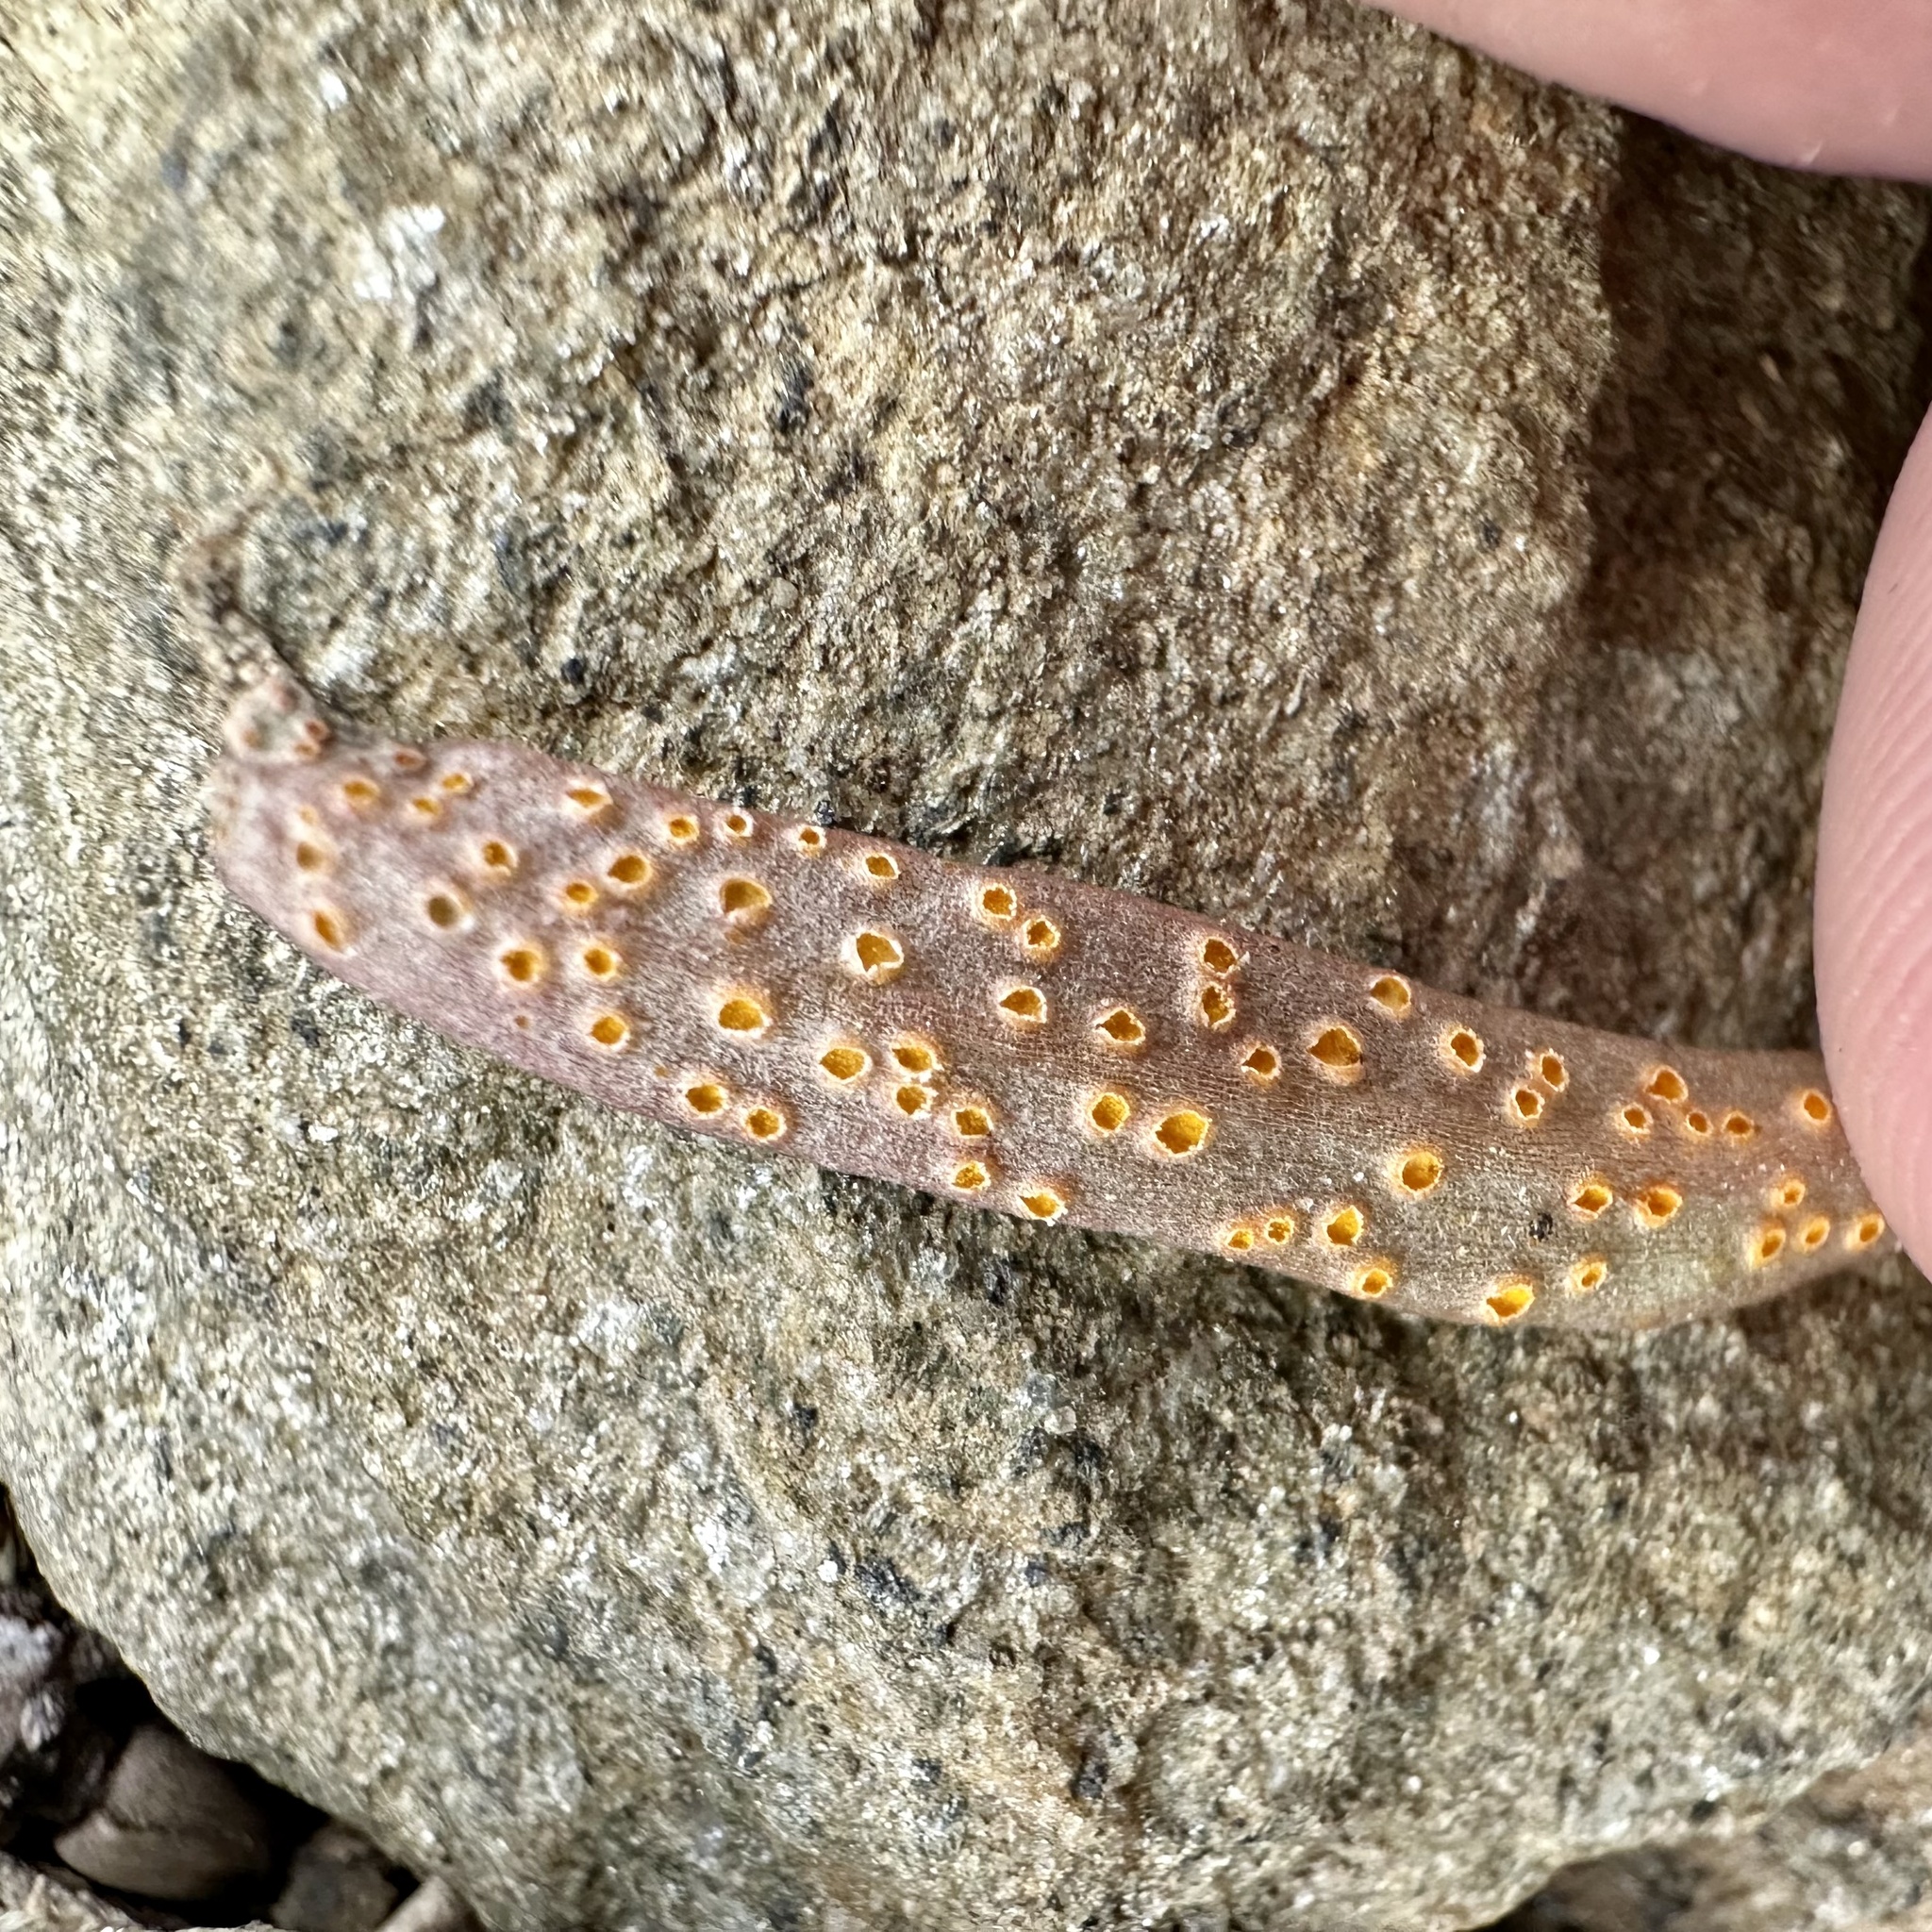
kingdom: Fungi
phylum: Basidiomycota
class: Pucciniomycetes
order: Pucciniales
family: Pucciniaceae
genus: Puccinia
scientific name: Puccinia mariae-wilsoniae
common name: Spring beauty rust
